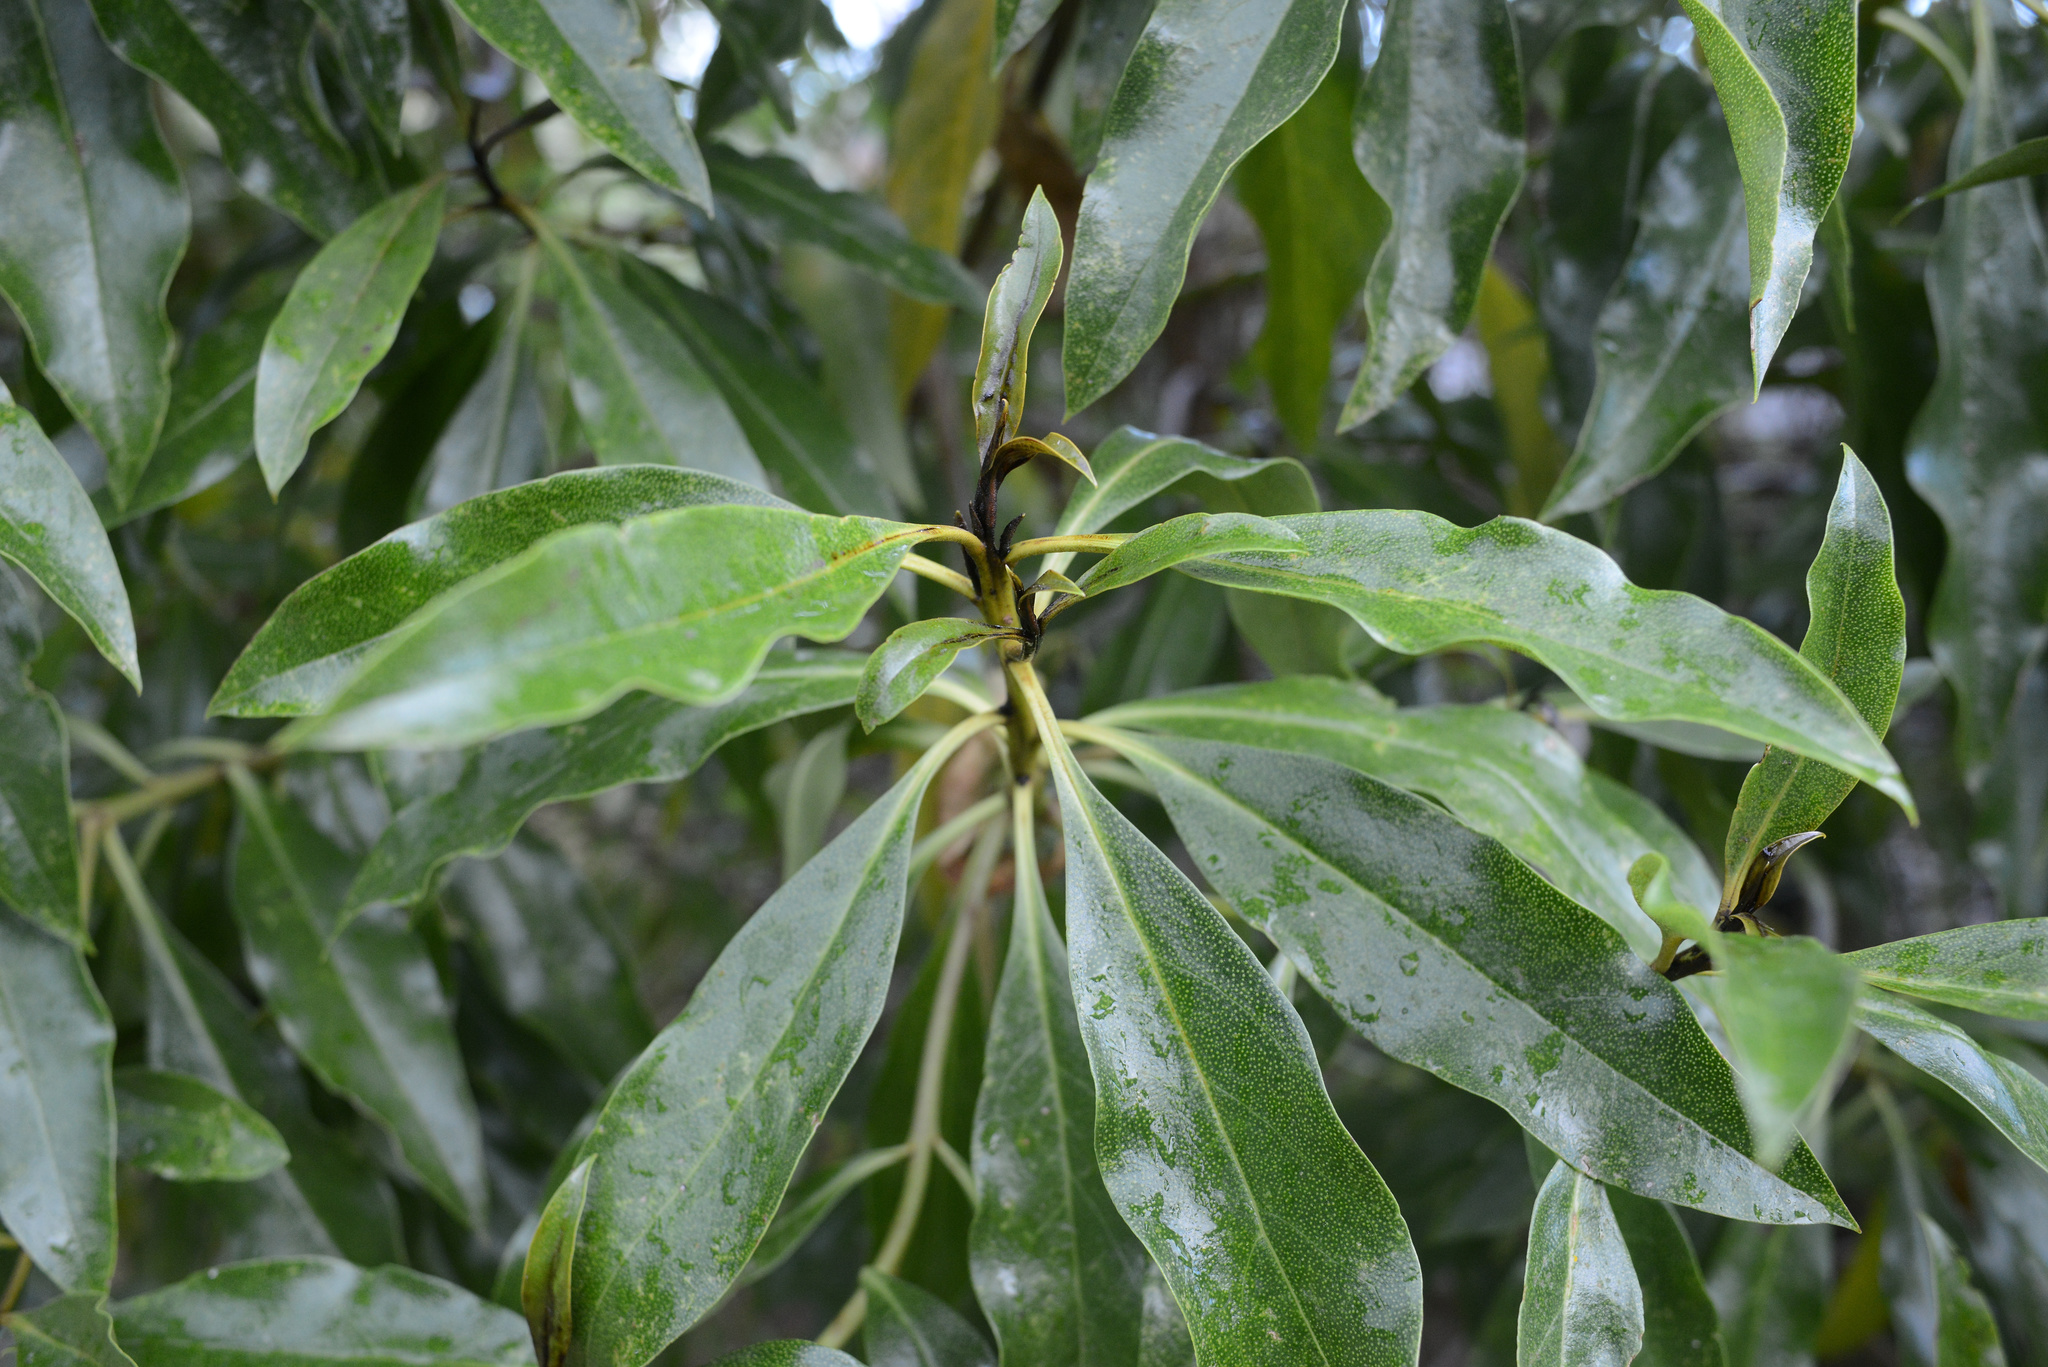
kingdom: Plantae
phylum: Tracheophyta
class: Magnoliopsida
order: Lamiales
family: Scrophulariaceae
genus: Myoporum
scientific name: Myoporum laetum
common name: Ngaio tree
